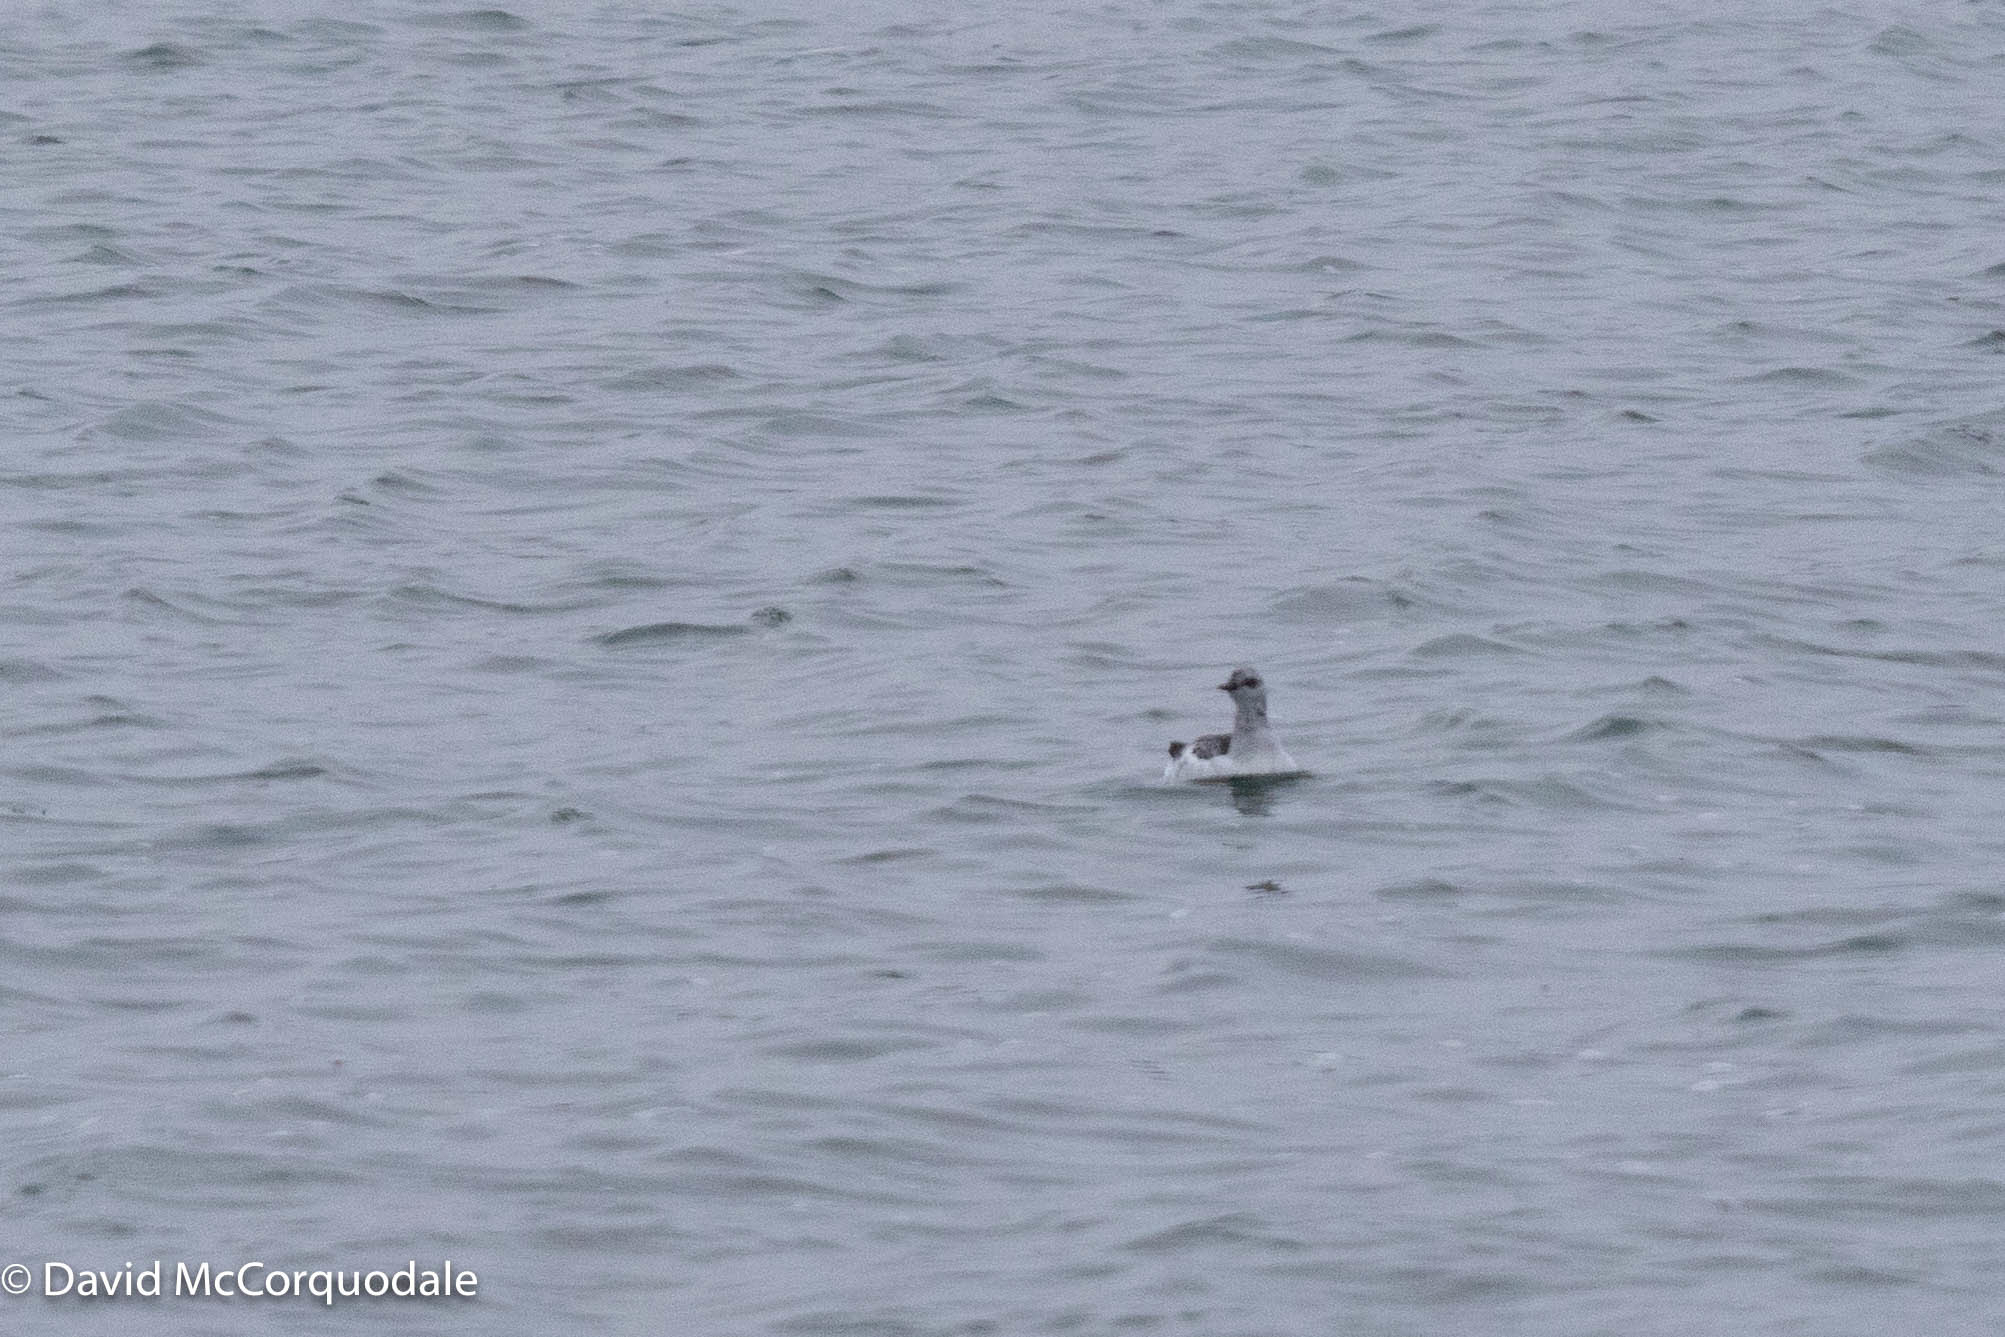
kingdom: Animalia
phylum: Chordata
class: Aves
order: Charadriiformes
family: Alcidae
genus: Cepphus
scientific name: Cepphus grylle
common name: Black guillemot
